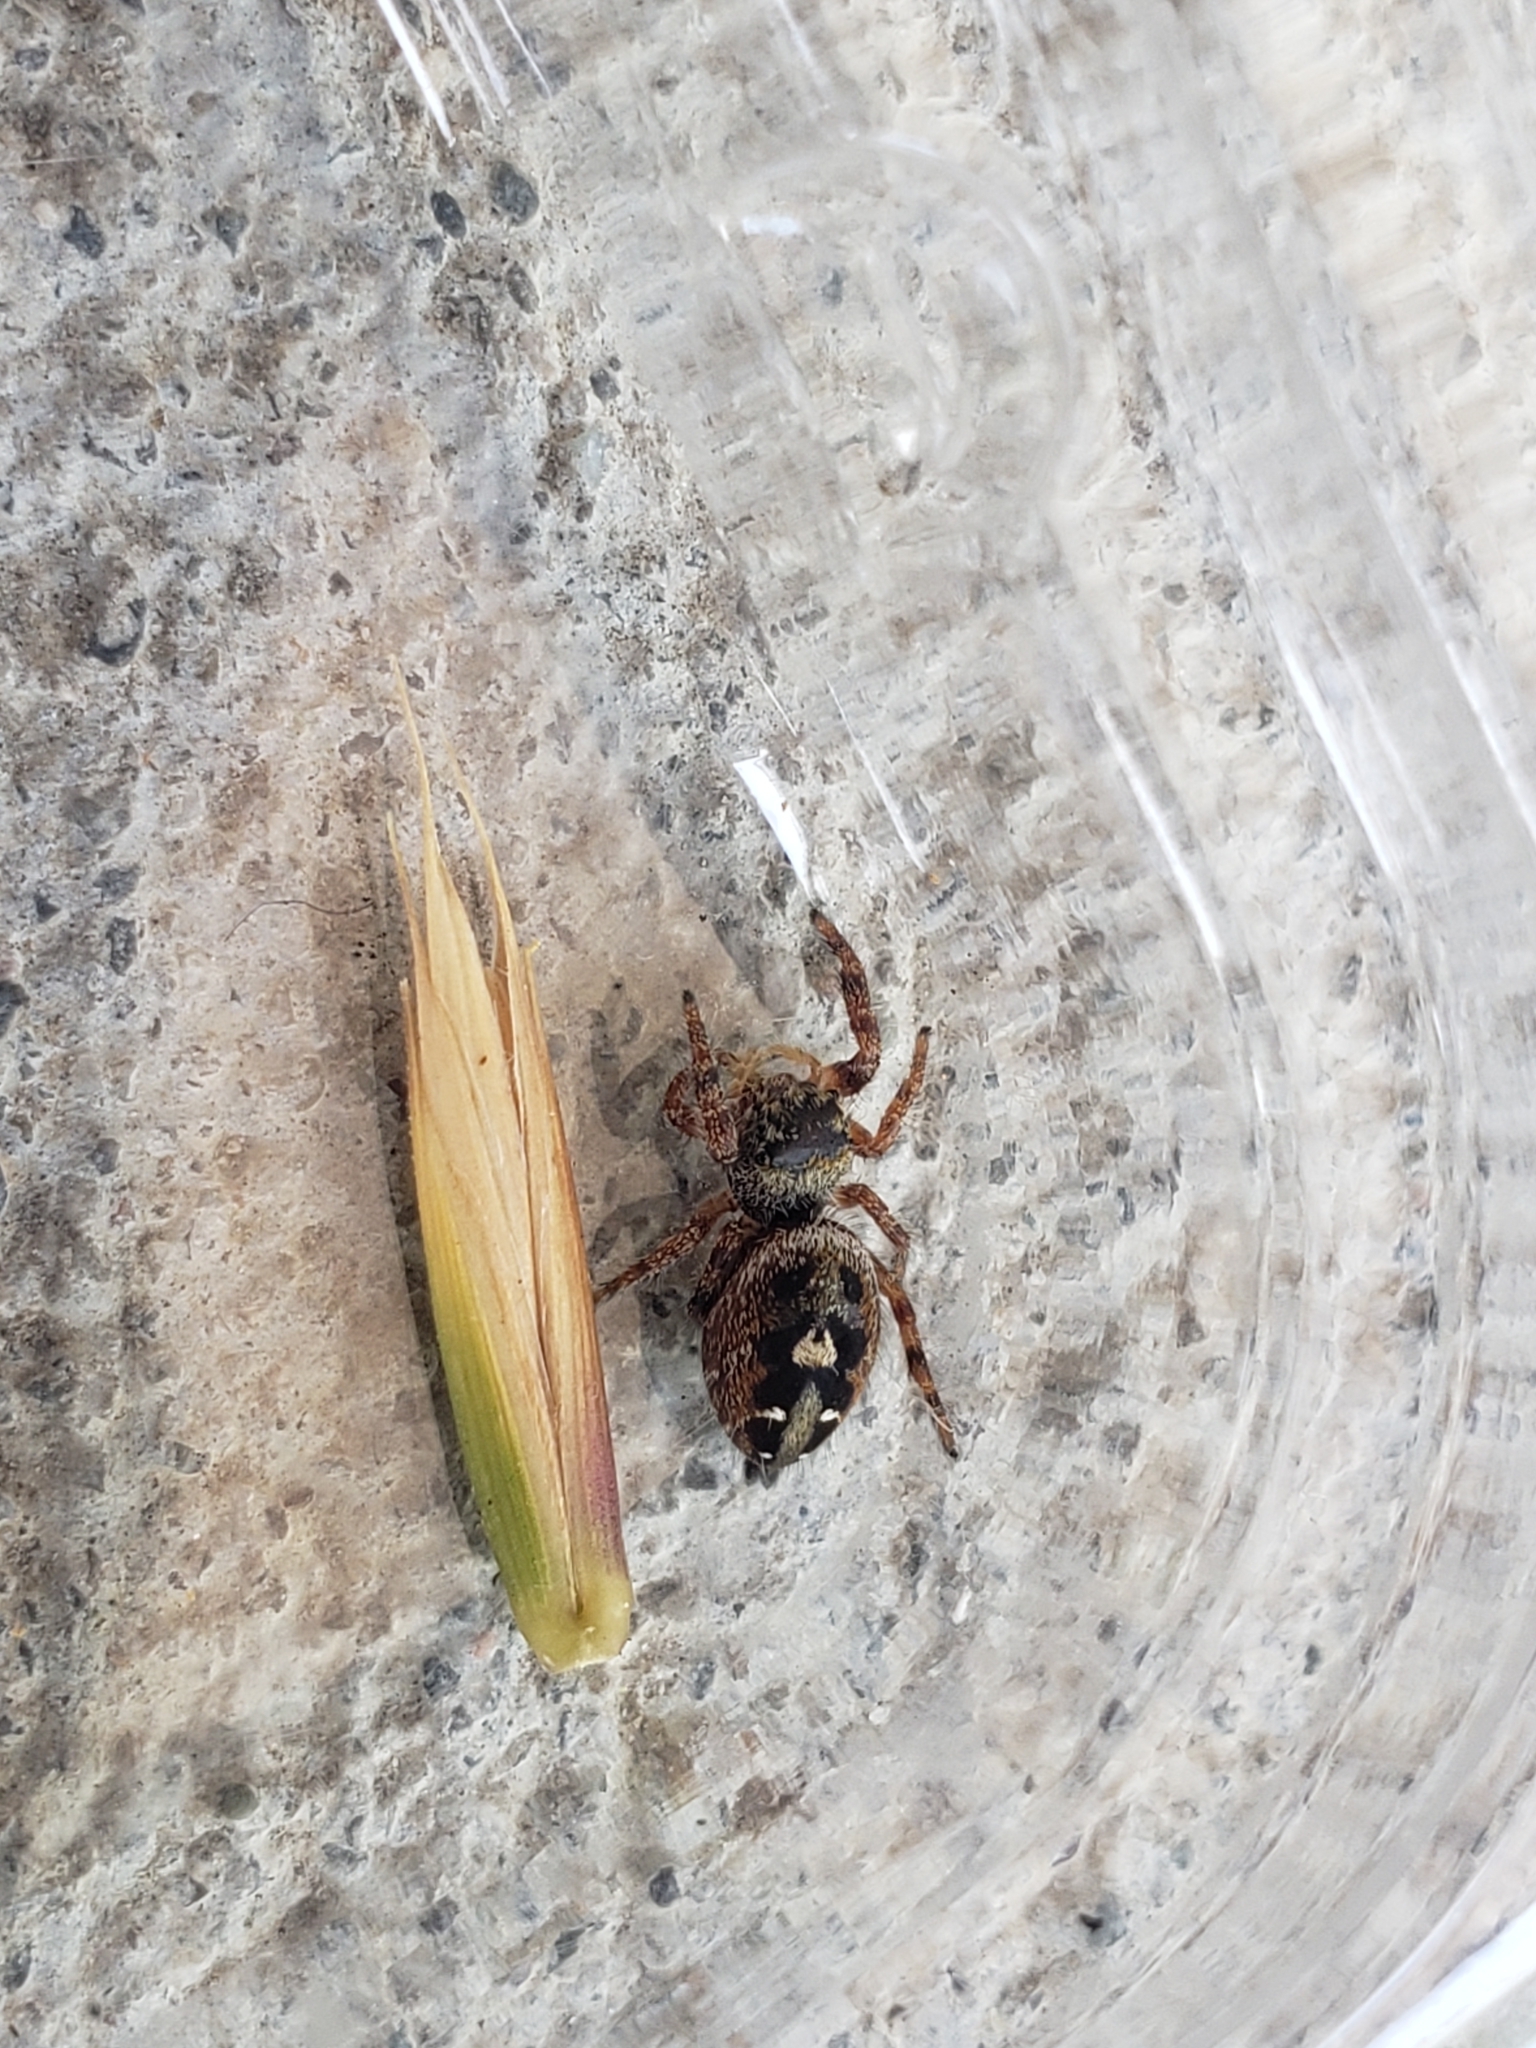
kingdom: Animalia
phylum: Arthropoda
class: Arachnida
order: Araneae
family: Salticidae
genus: Phidippus
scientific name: Phidippus audax
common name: Bold jumper
